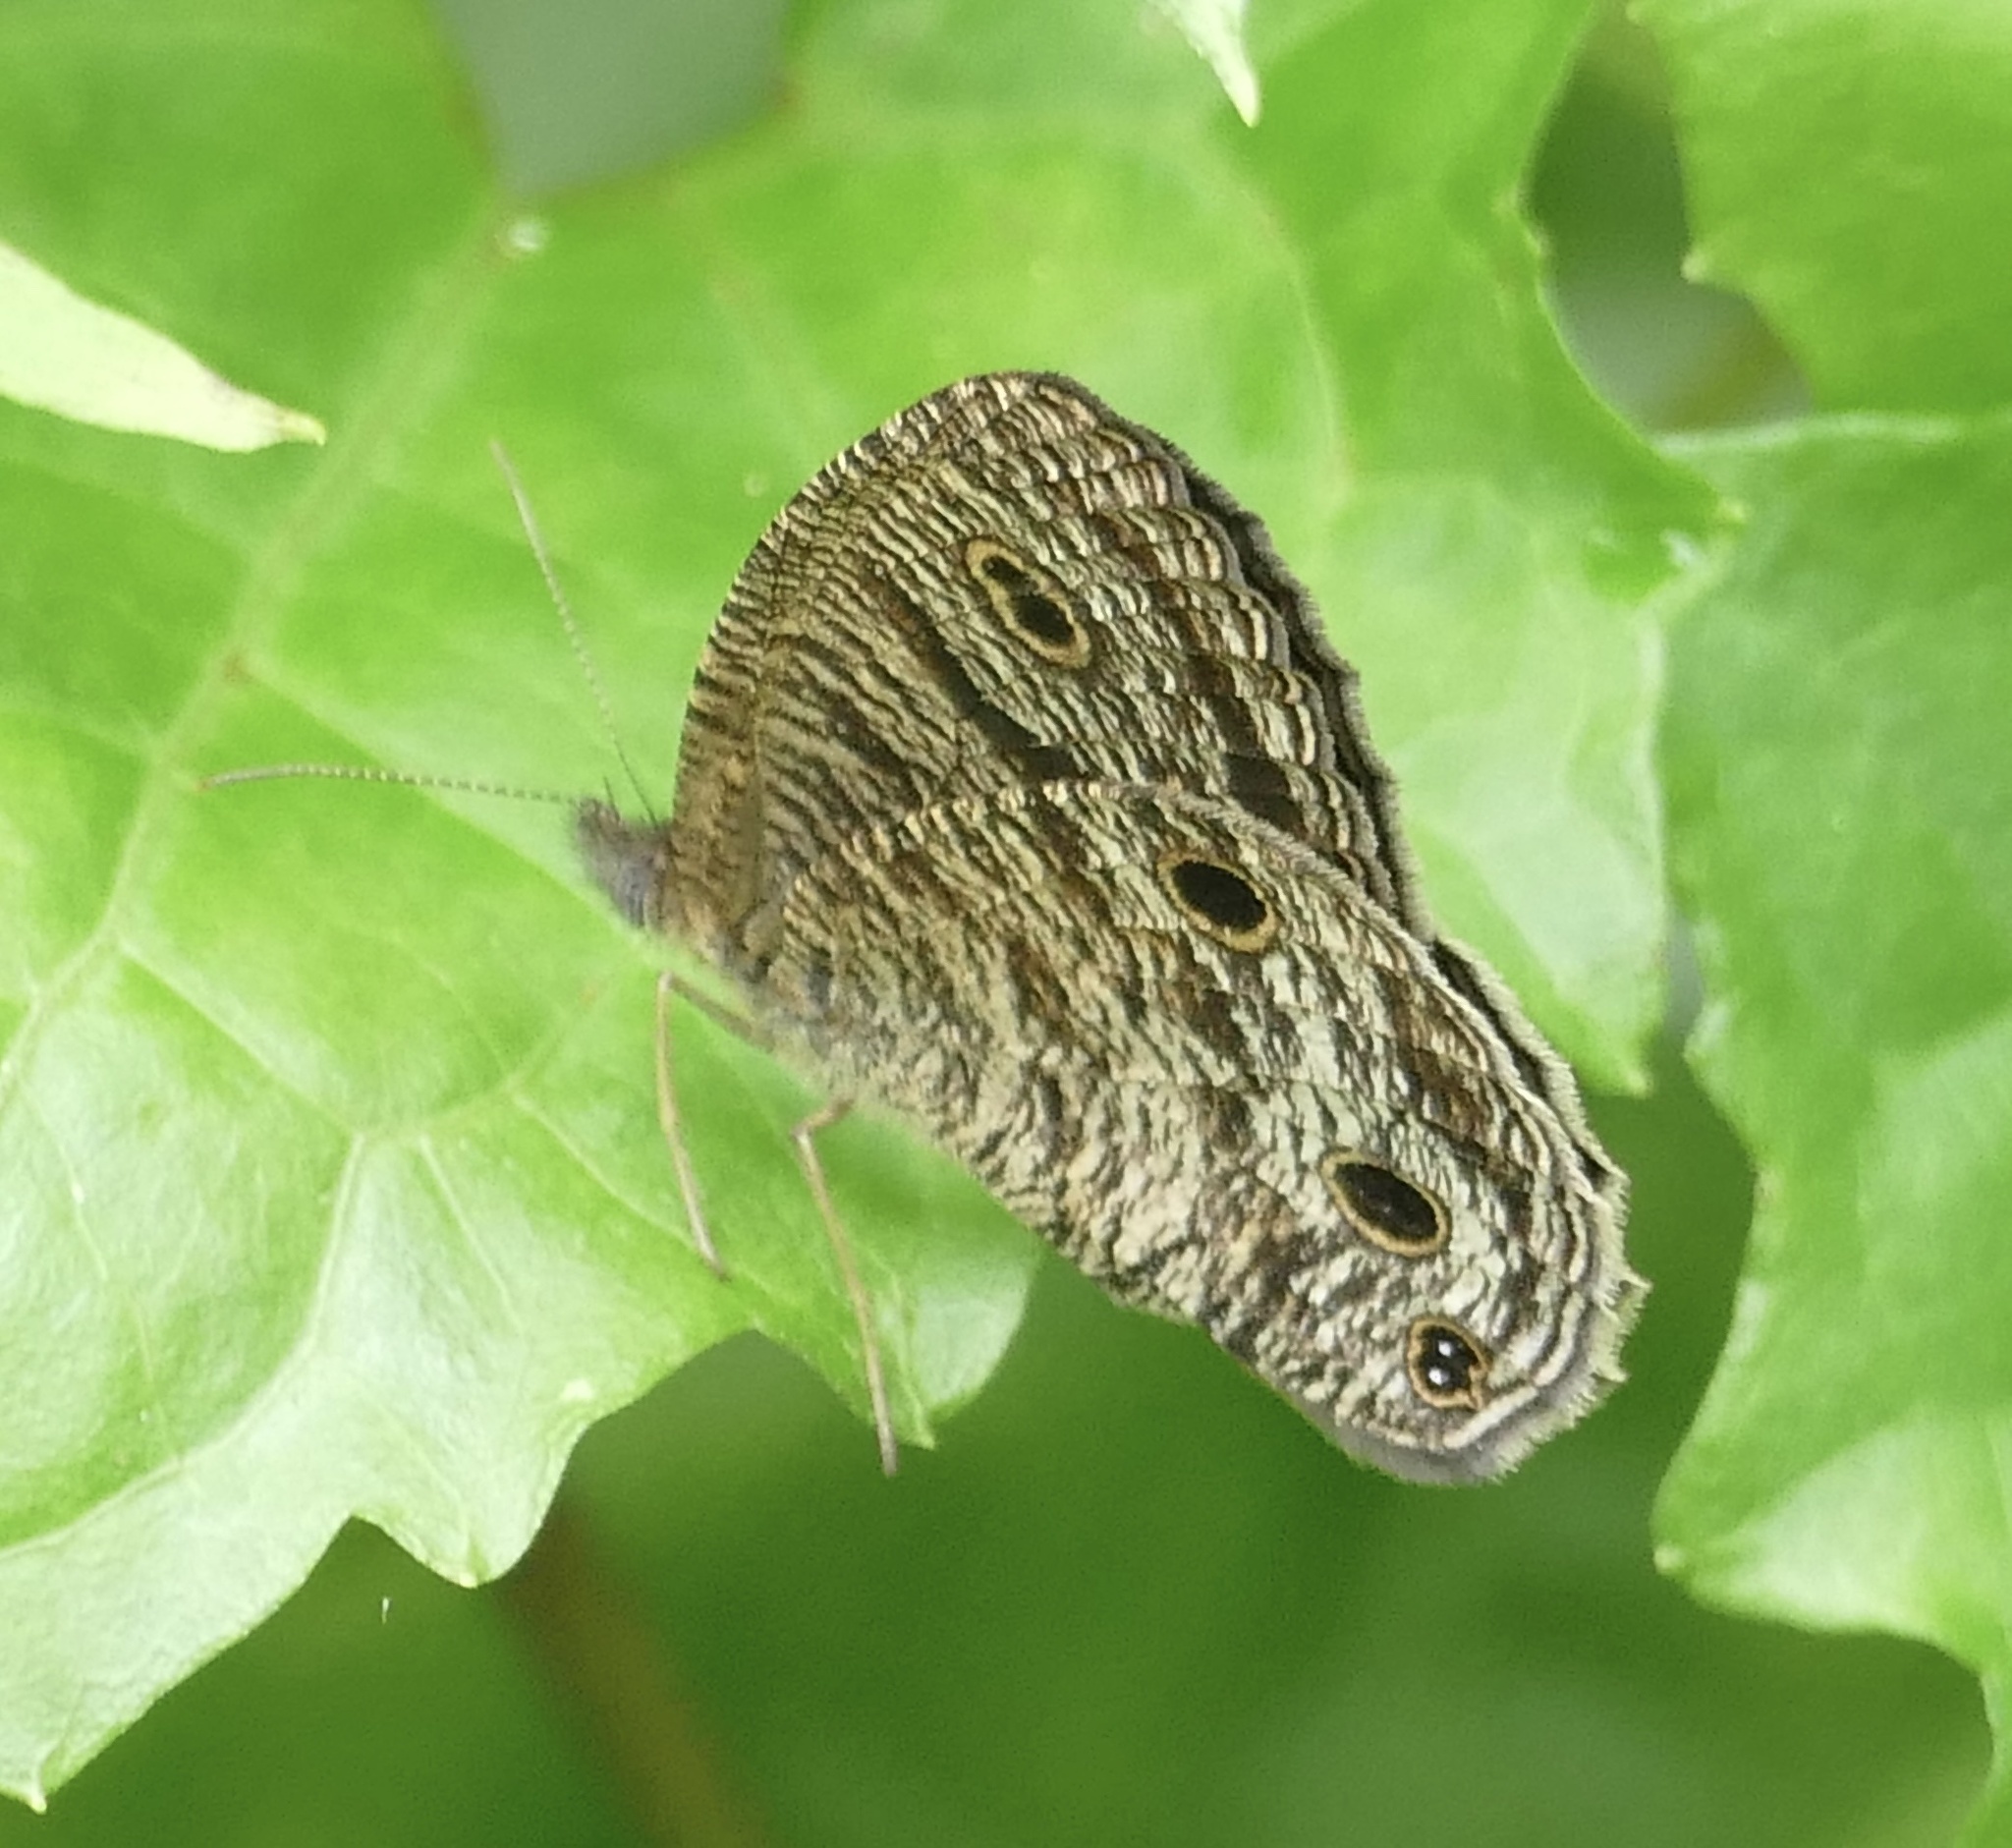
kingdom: Animalia
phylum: Arthropoda
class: Insecta
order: Lepidoptera
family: Nymphalidae
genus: Ypthima
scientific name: Ypthima pandocus
